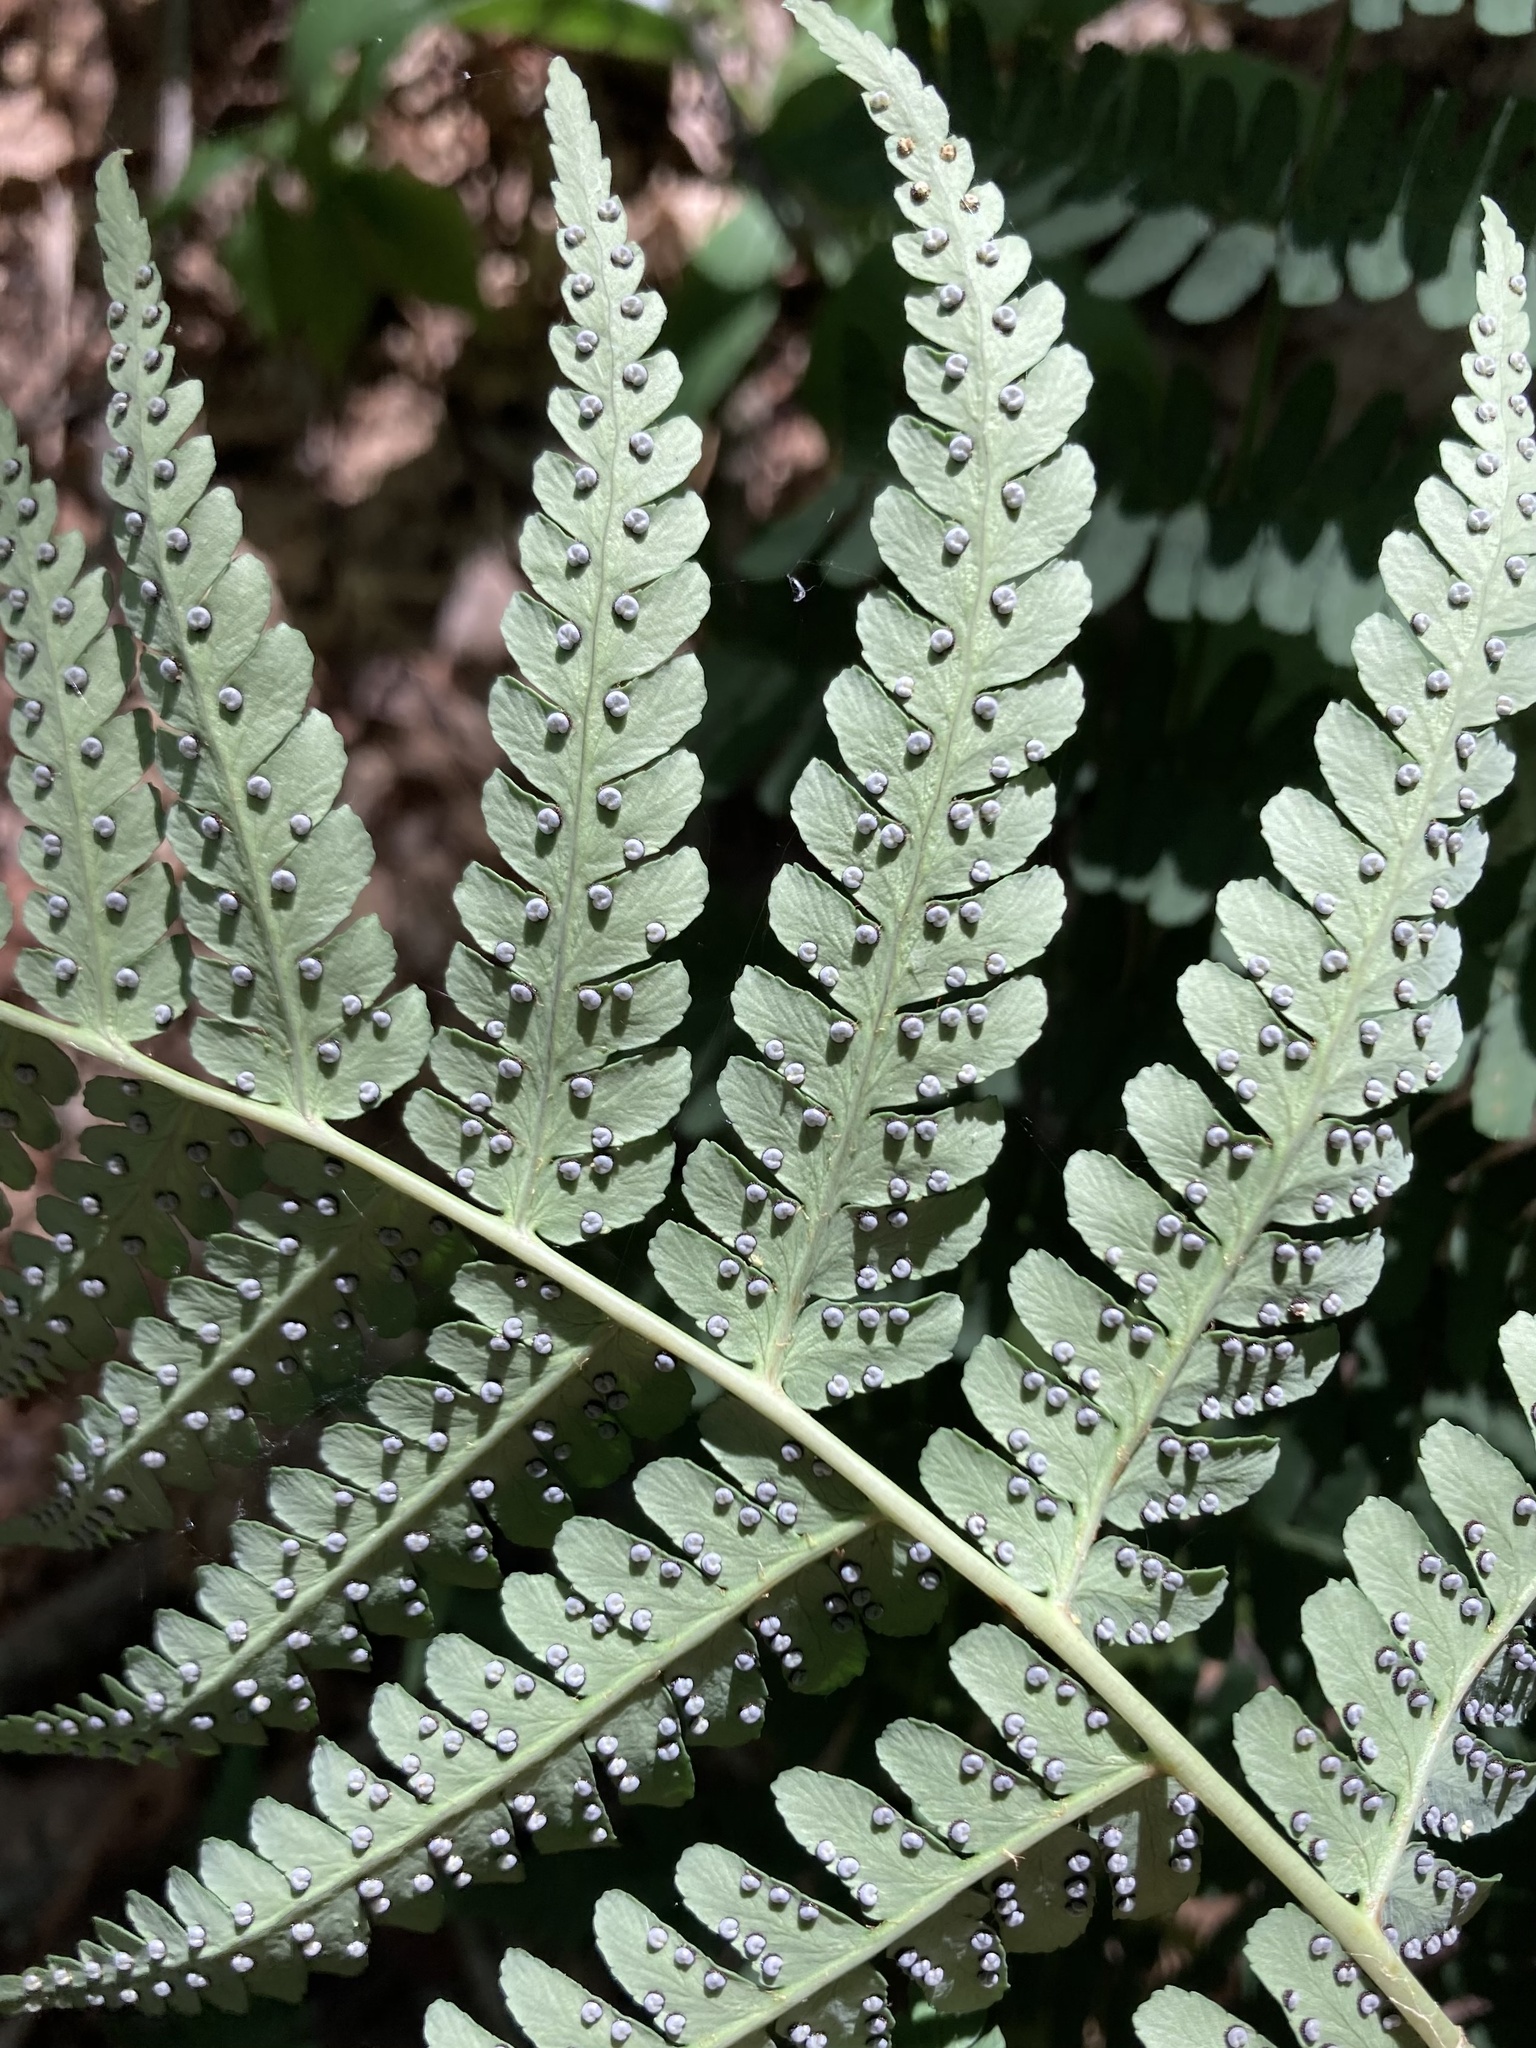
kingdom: Plantae
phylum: Tracheophyta
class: Polypodiopsida
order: Polypodiales
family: Dryopteridaceae
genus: Dryopteris
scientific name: Dryopteris marginalis
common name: Marginal wood fern
